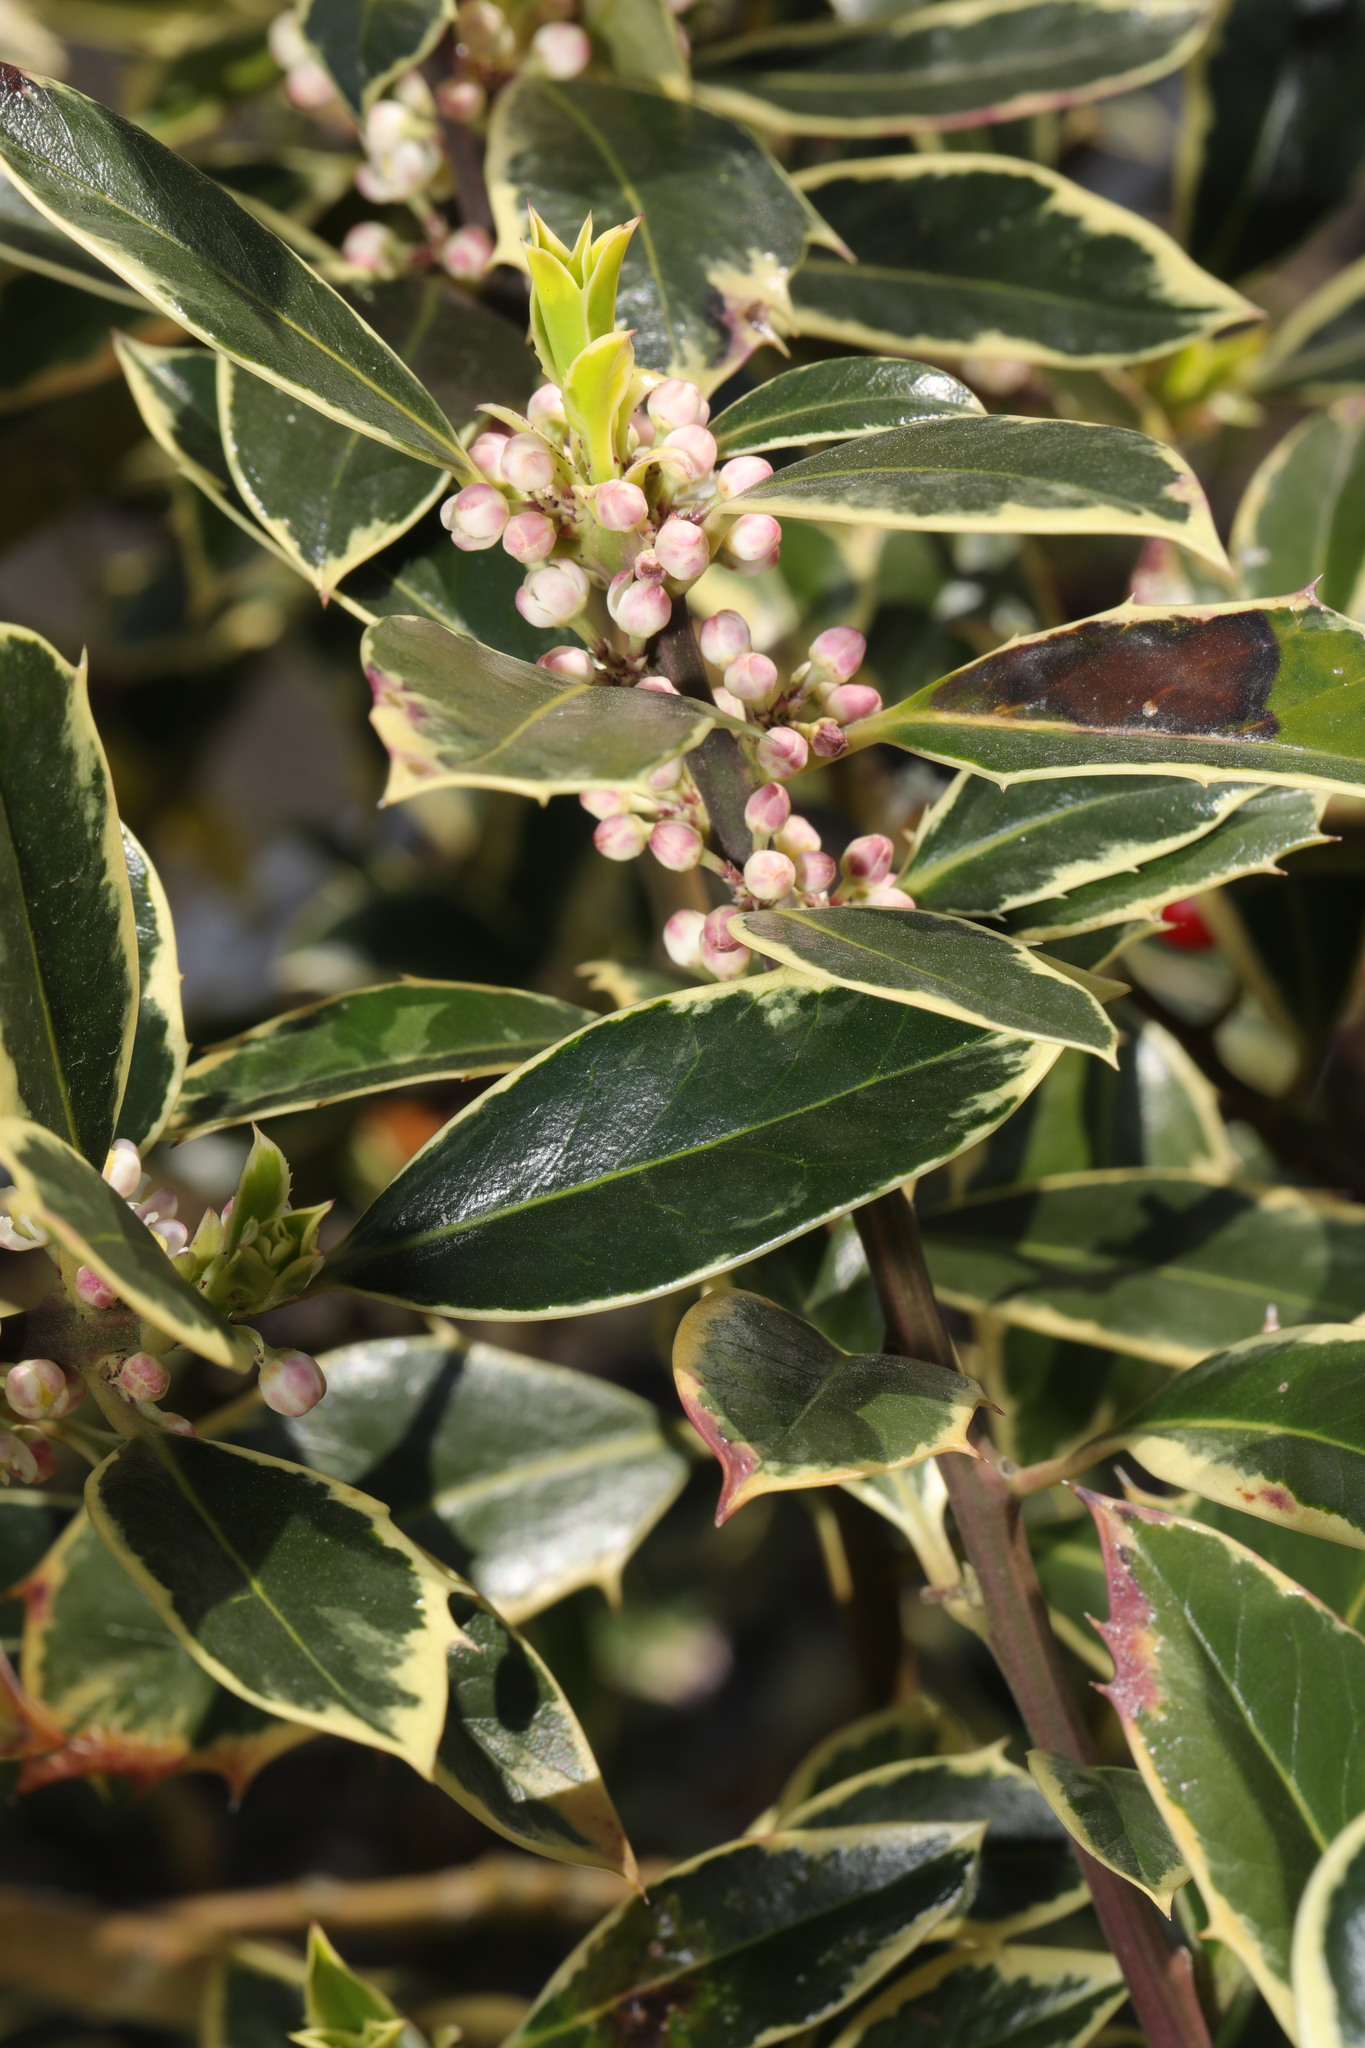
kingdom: Plantae
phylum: Tracheophyta
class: Magnoliopsida
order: Aquifoliales
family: Aquifoliaceae
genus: Ilex
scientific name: Ilex aquifolium
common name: English holly
